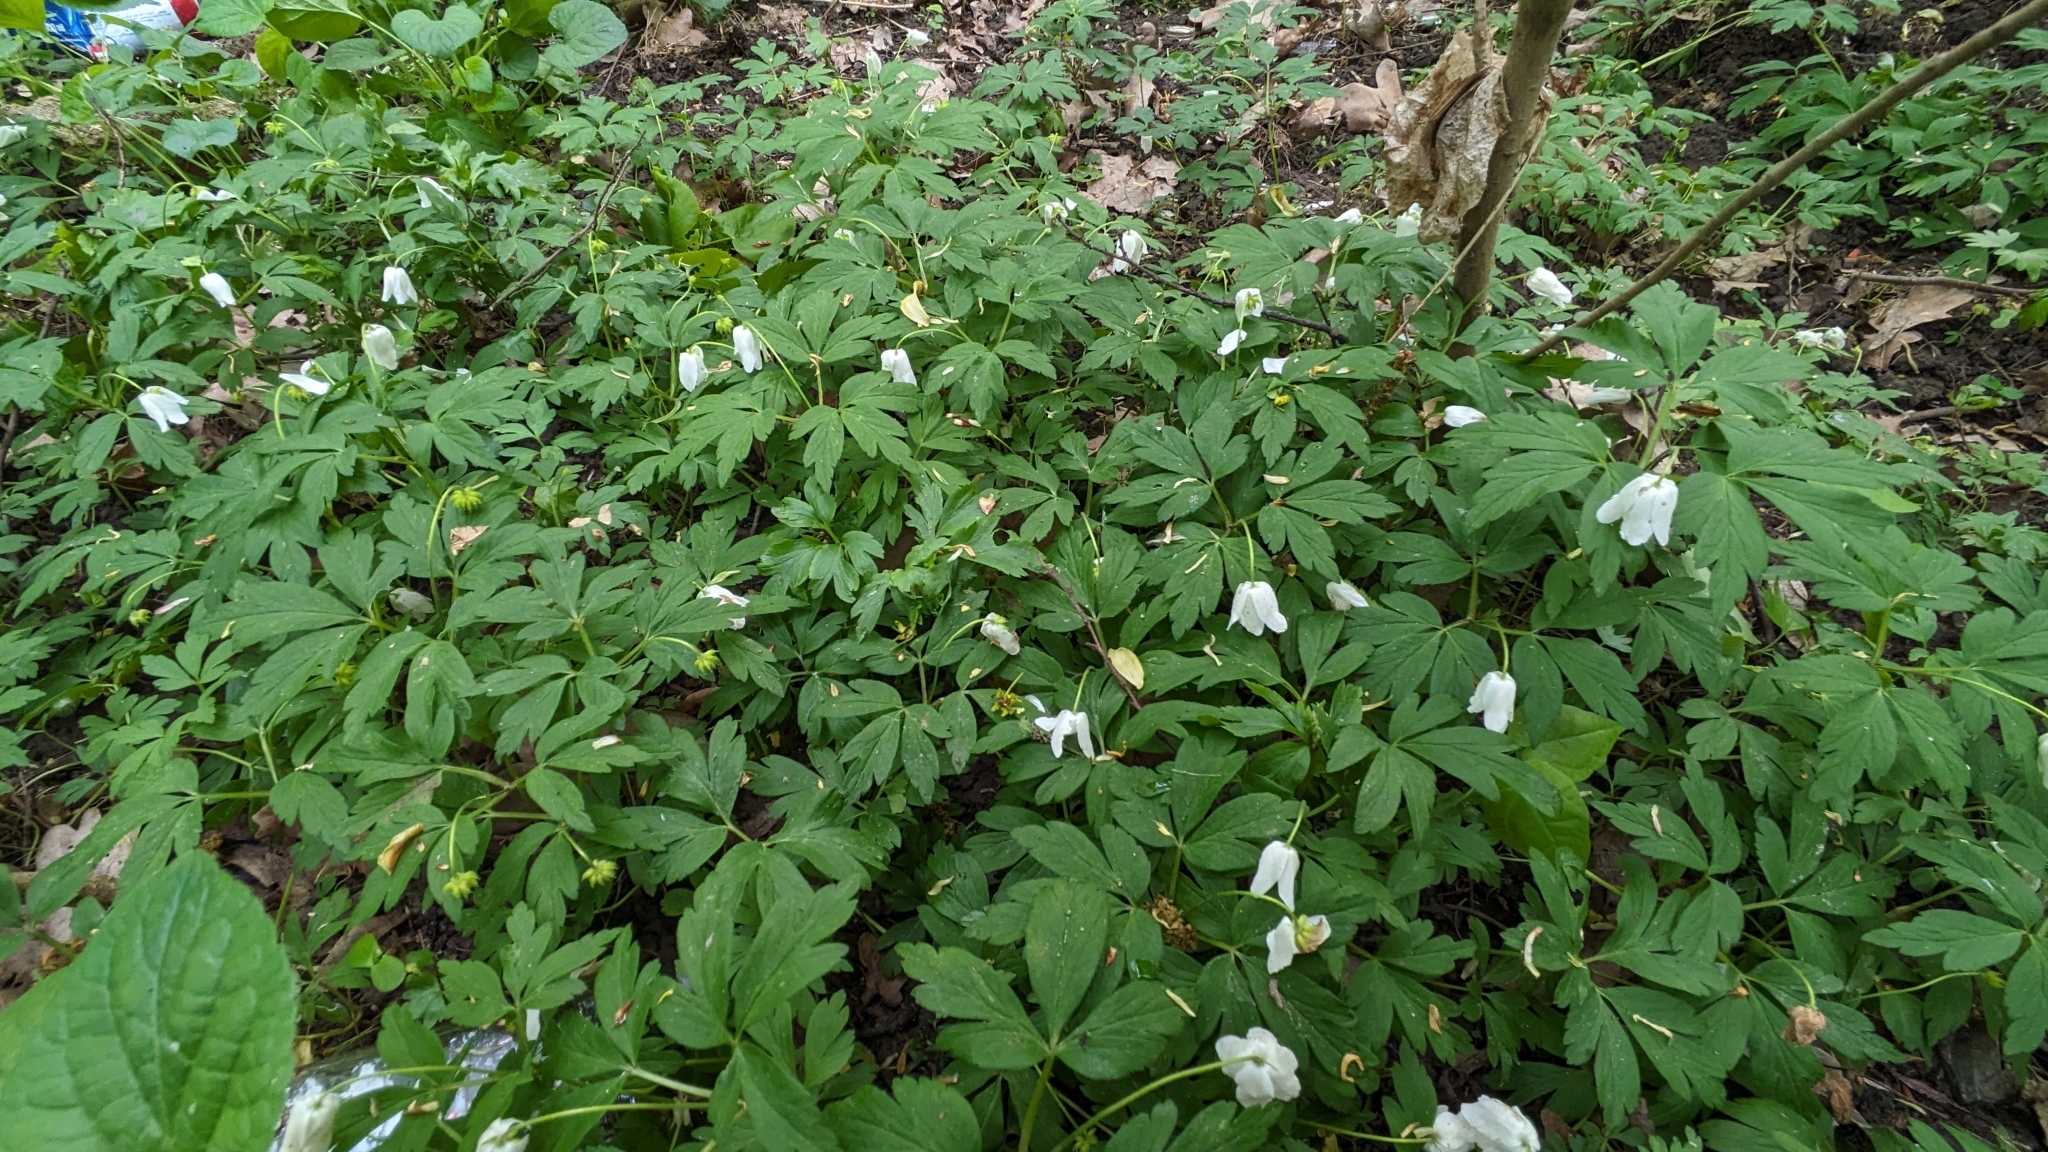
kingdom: Plantae
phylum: Tracheophyta
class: Magnoliopsida
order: Ranunculales
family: Ranunculaceae
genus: Anemone
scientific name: Anemone nemorosa
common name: Wood anemone
